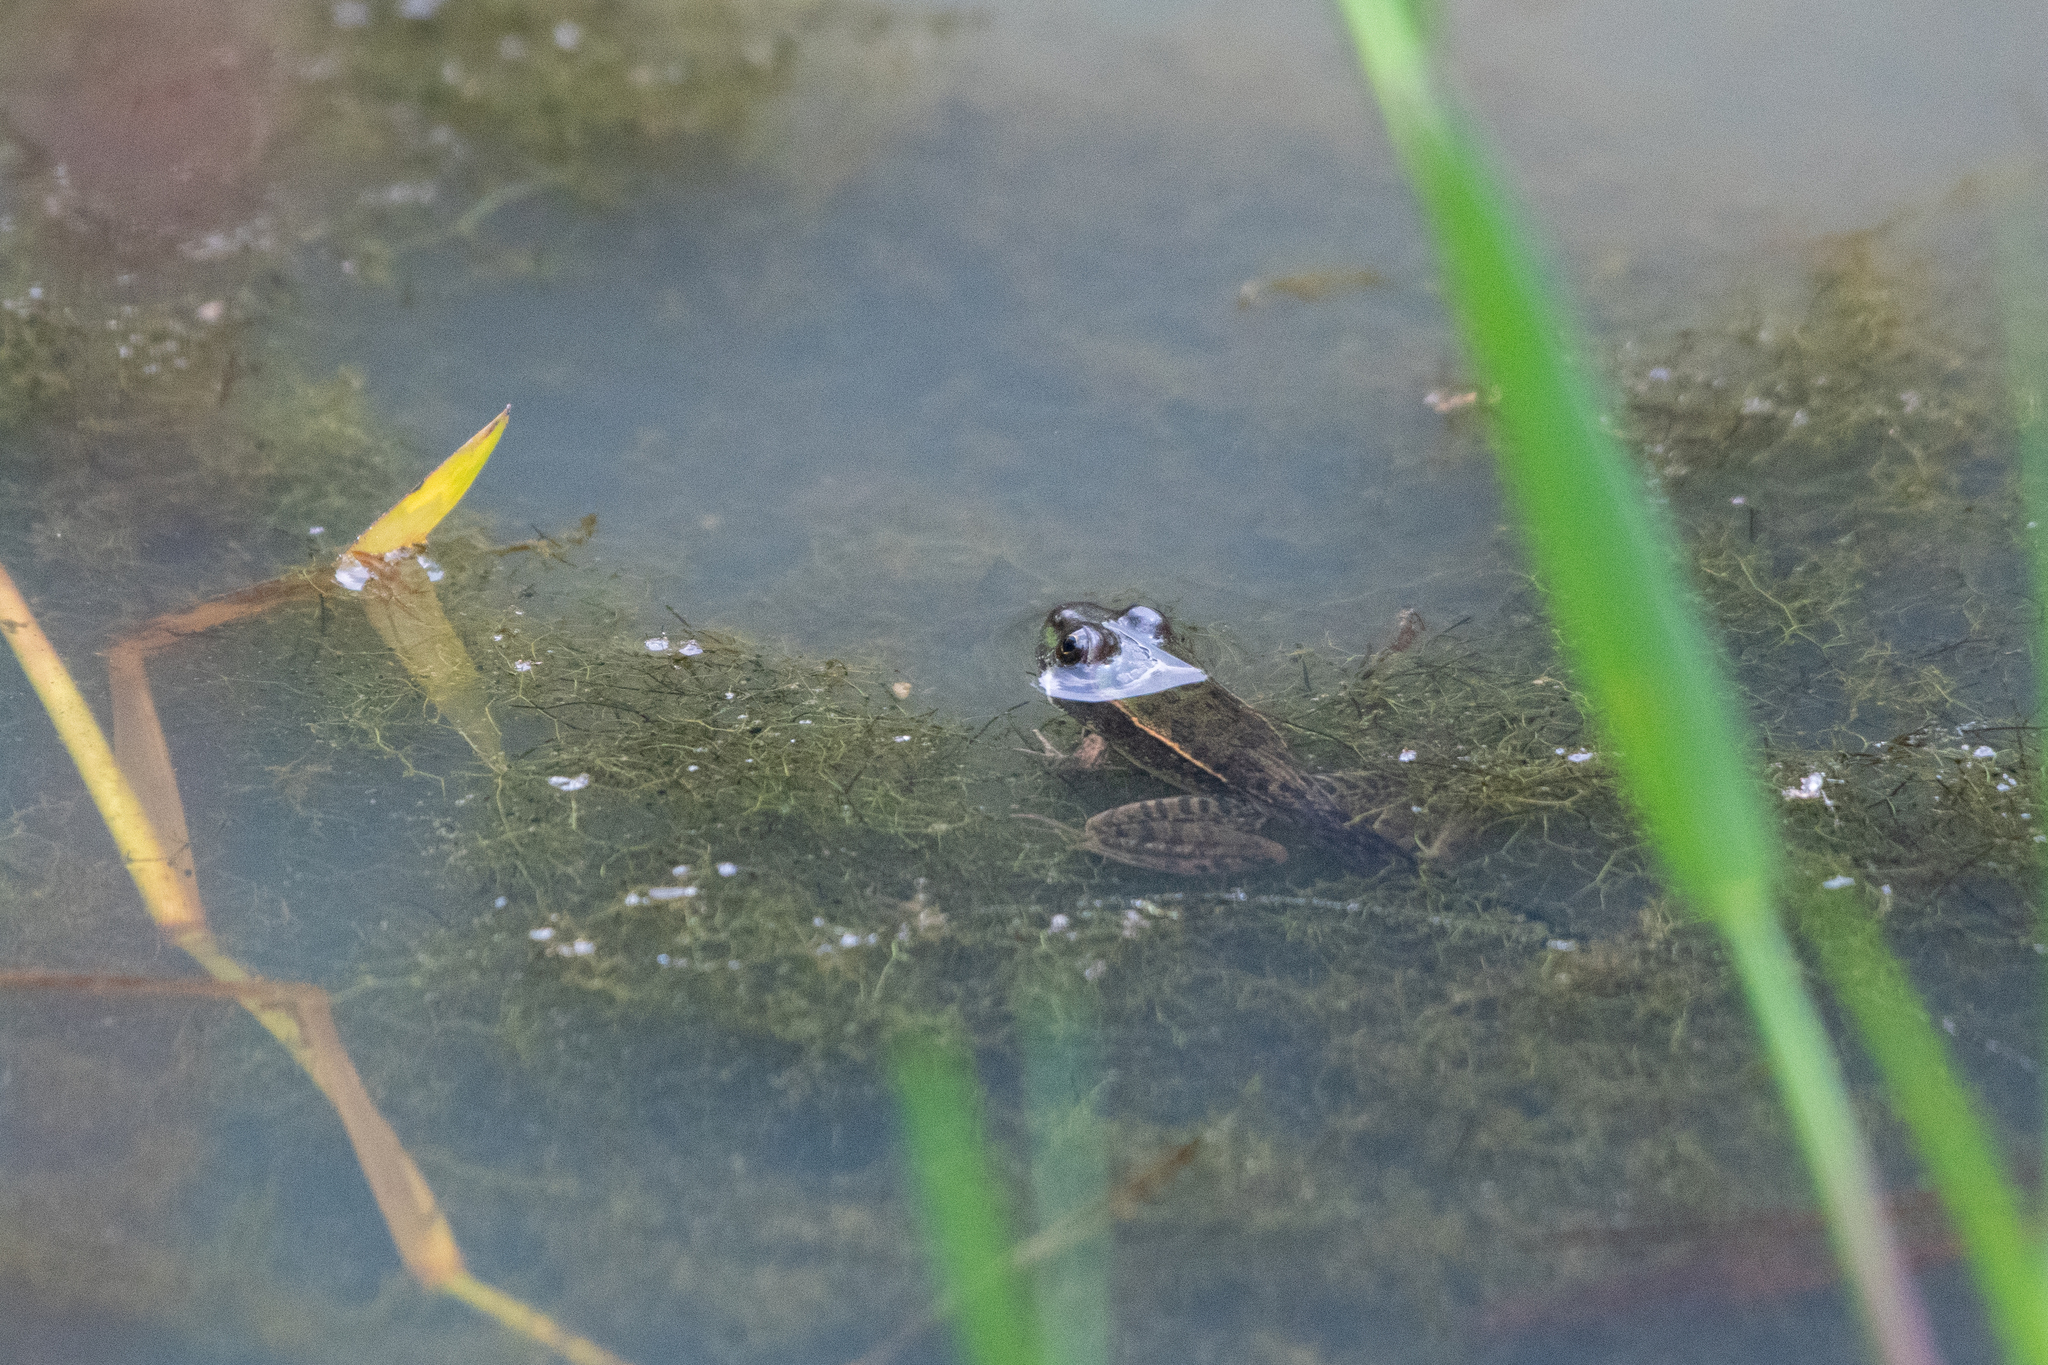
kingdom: Animalia
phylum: Chordata
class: Amphibia
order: Anura
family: Ranidae
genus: Lithobates
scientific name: Lithobates lenca
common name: Lenca leopard frog
